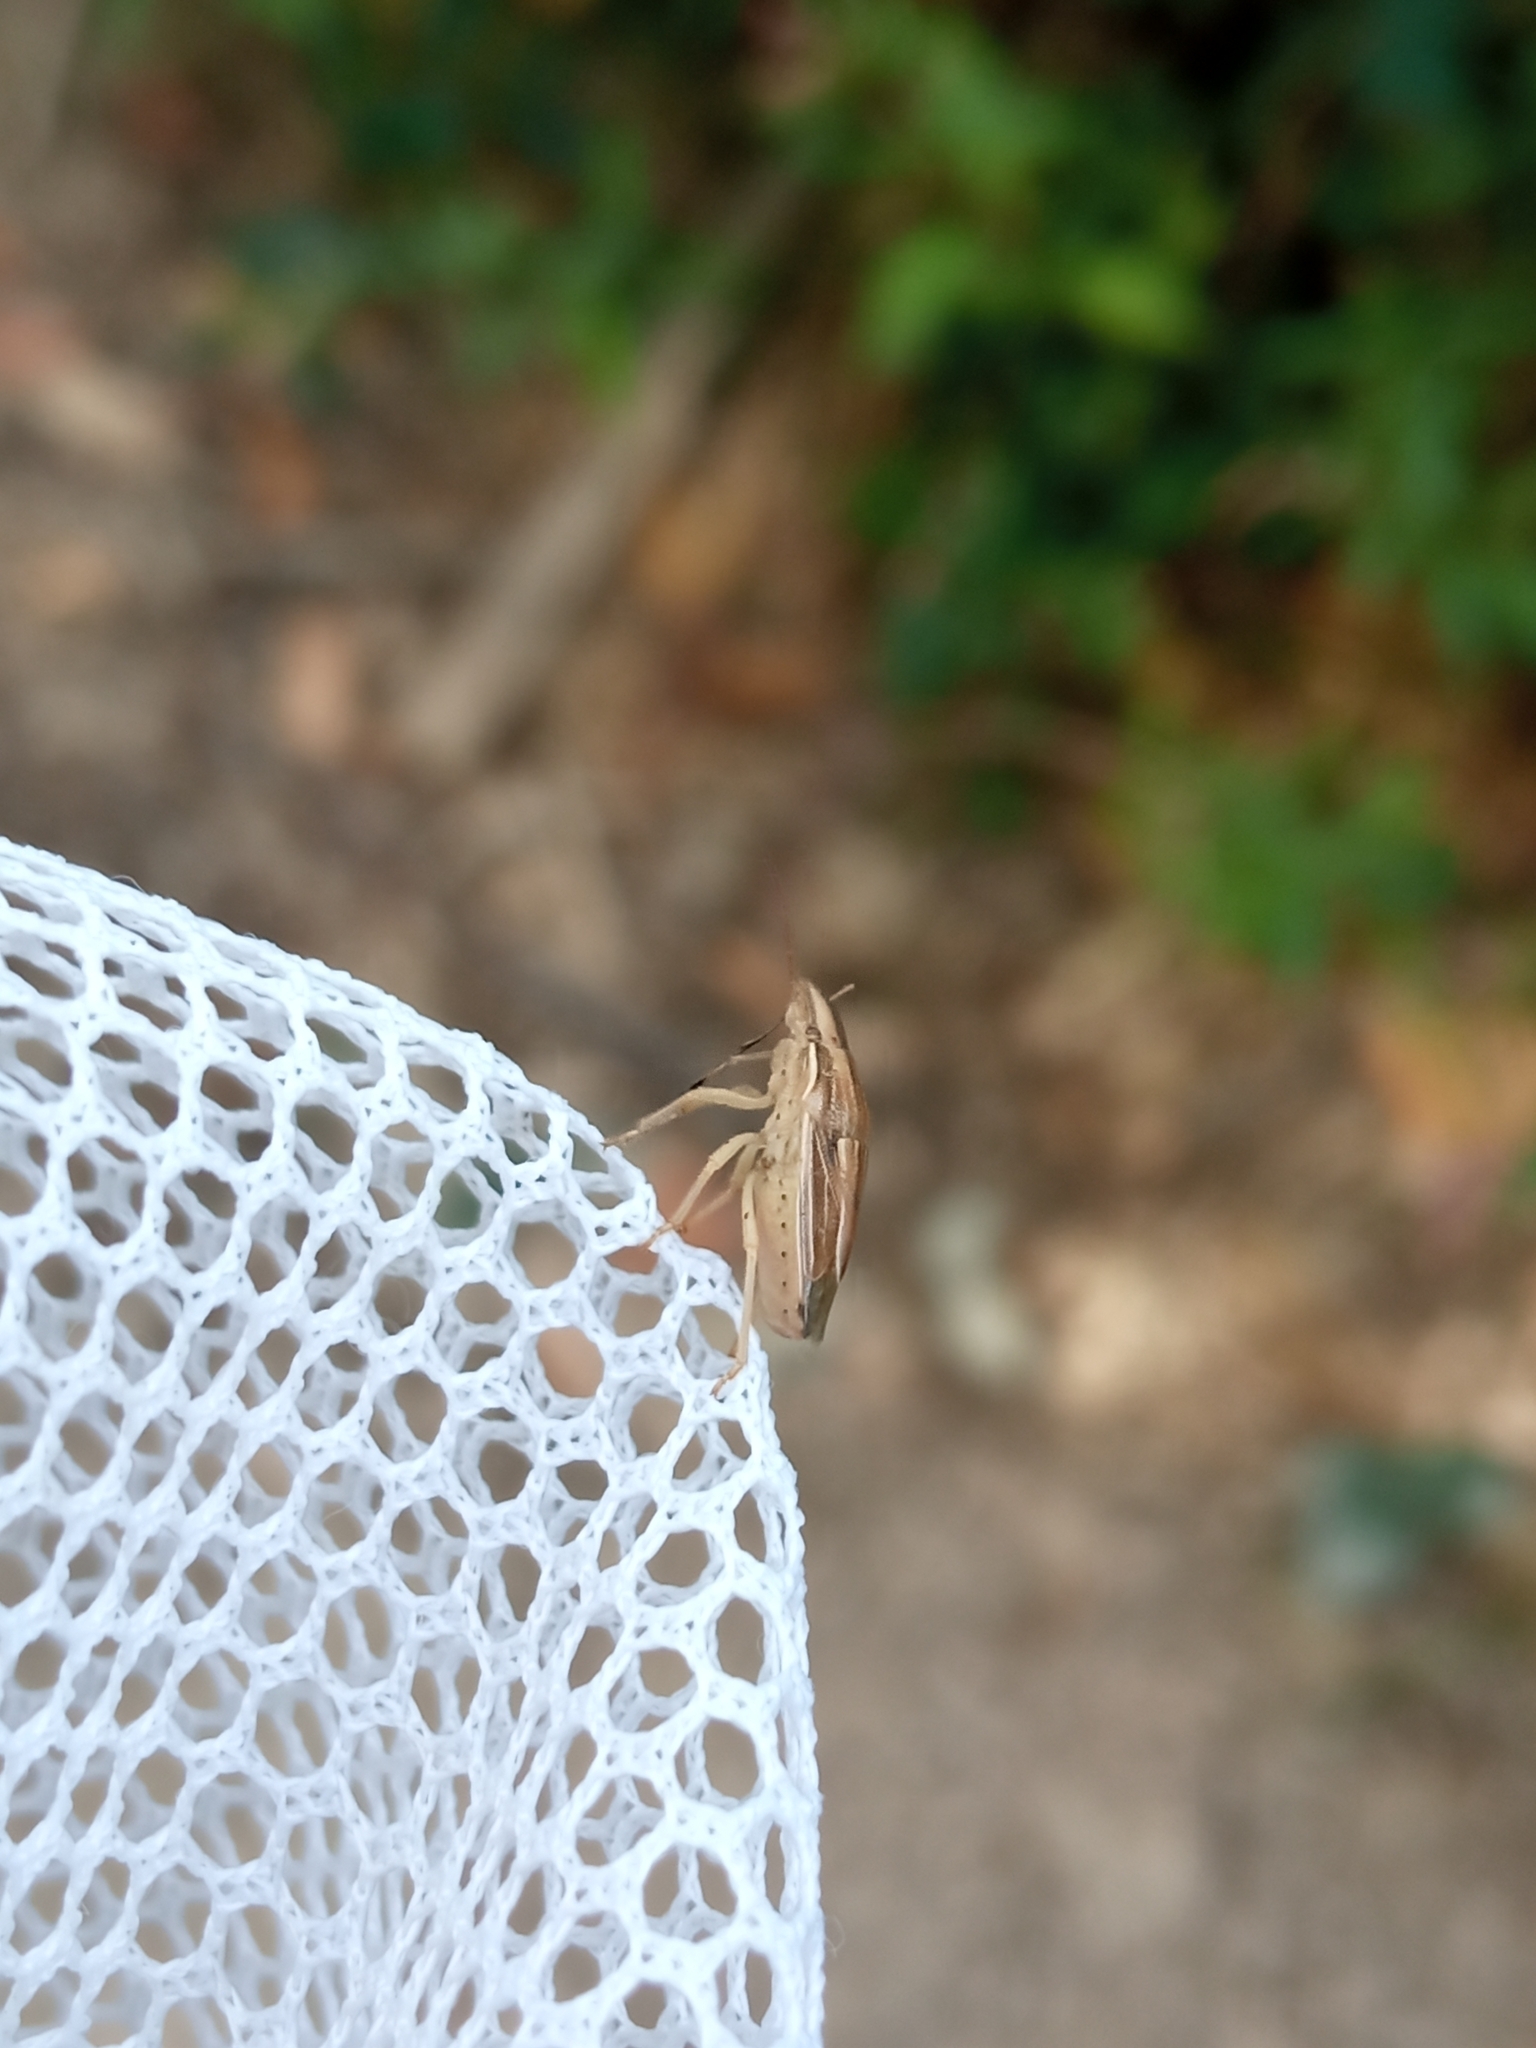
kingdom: Animalia
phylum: Arthropoda
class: Insecta
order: Hemiptera
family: Pentatomidae
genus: Aelia
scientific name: Aelia acuminata
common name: Bishop's mitre
